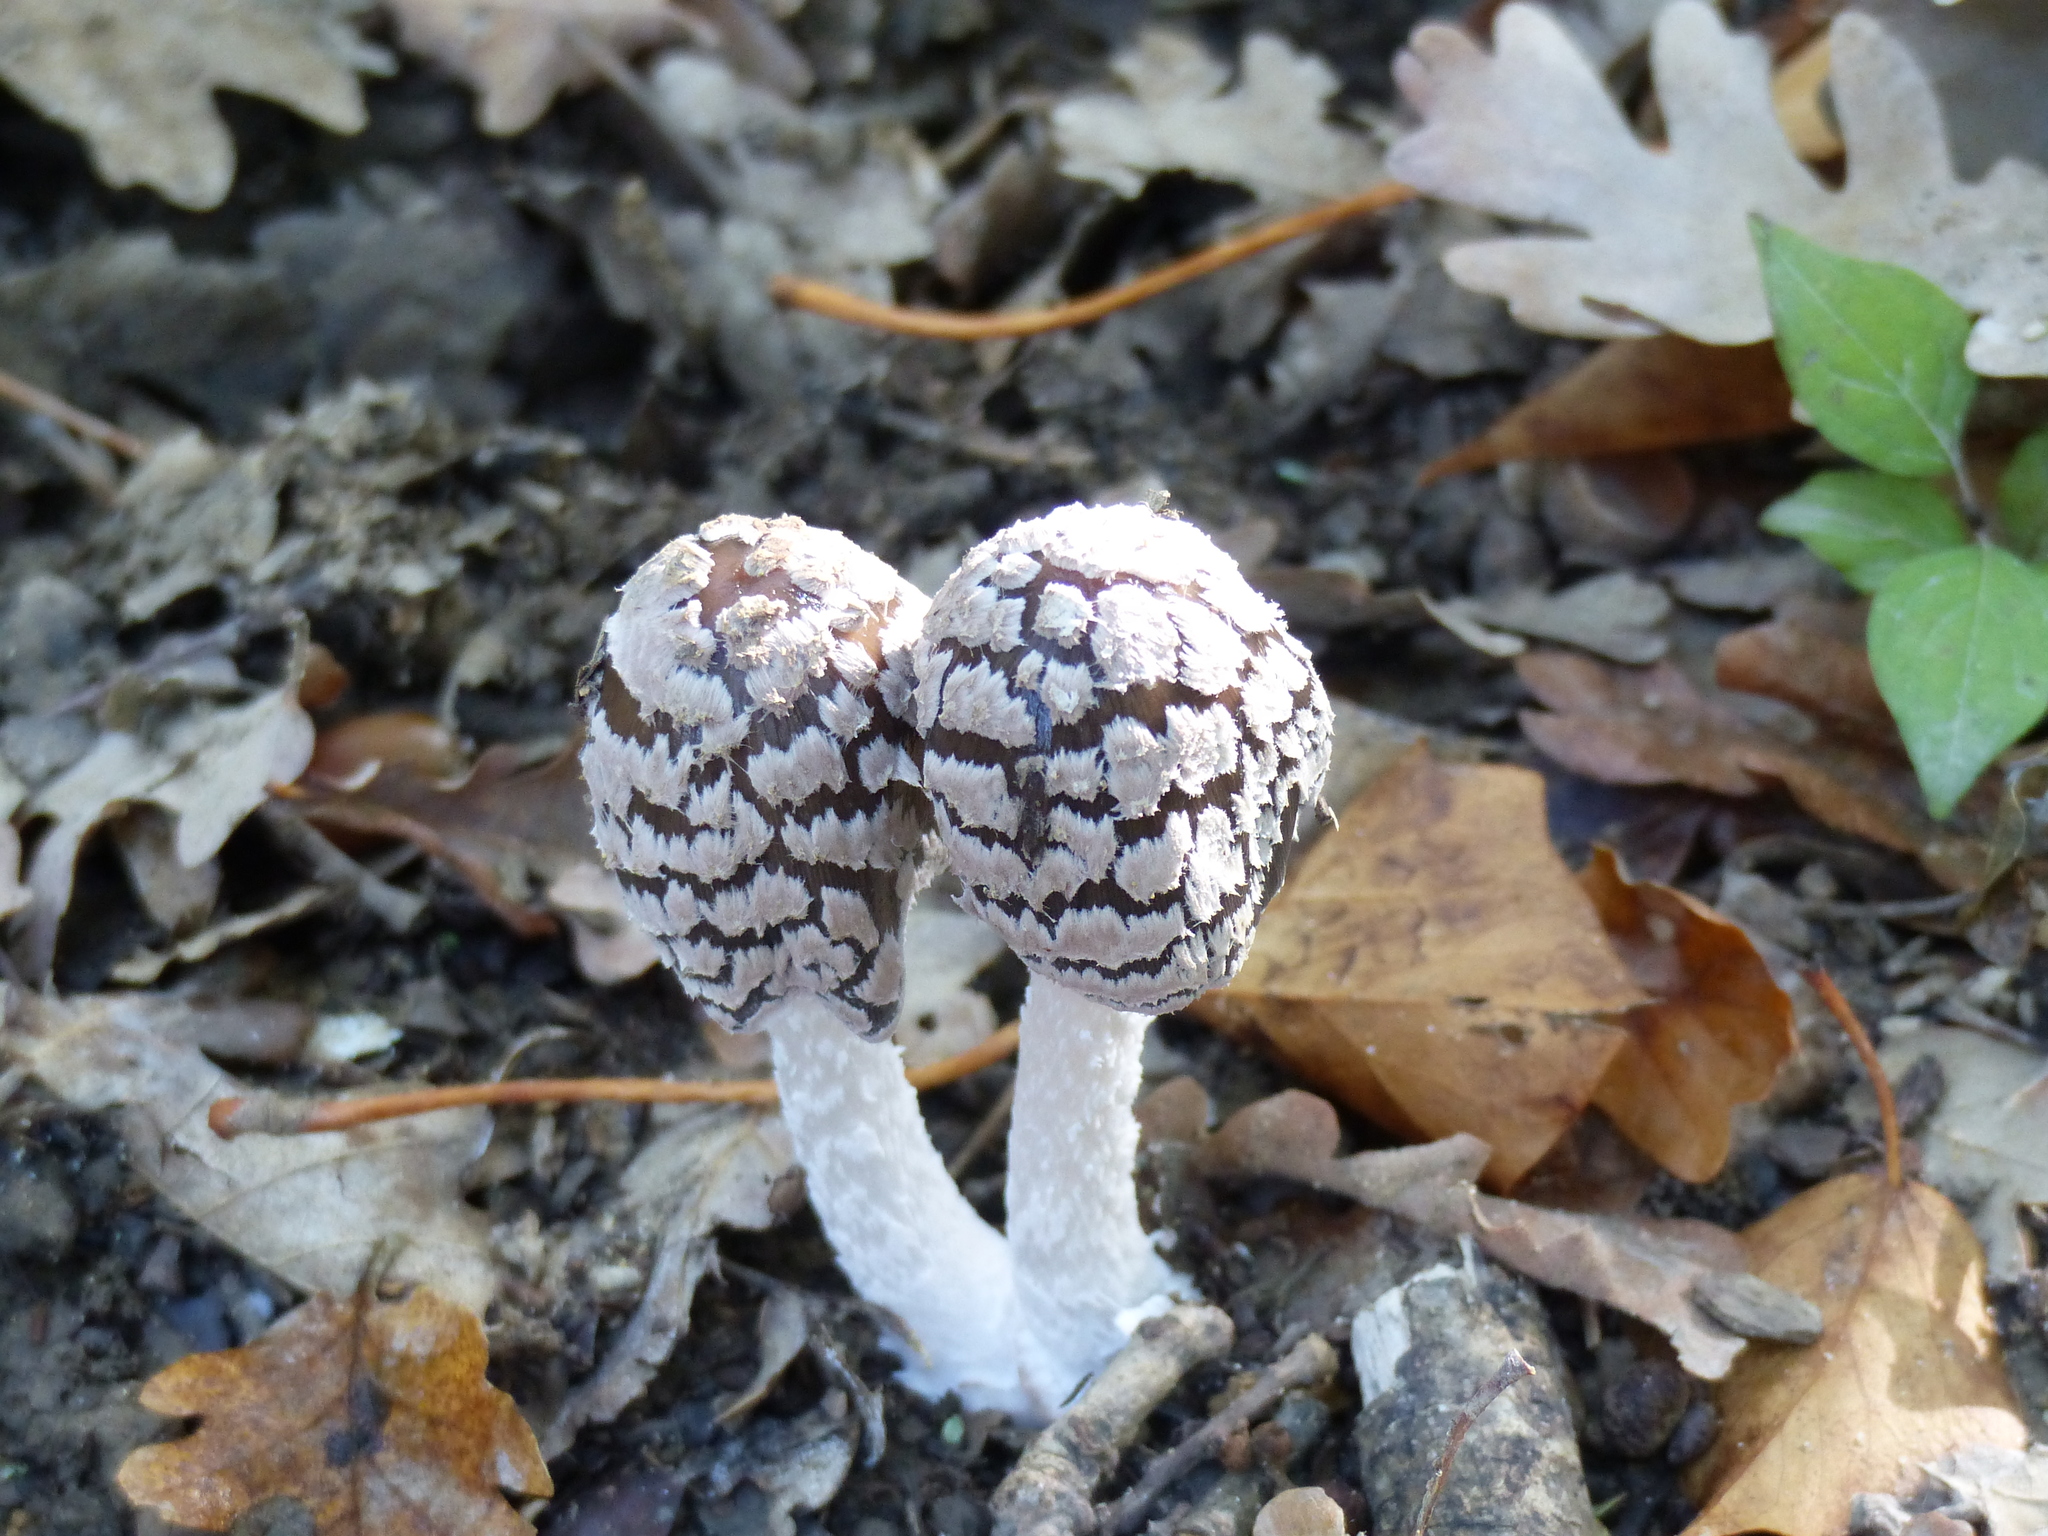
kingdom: Fungi
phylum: Basidiomycota
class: Agaricomycetes
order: Agaricales
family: Psathyrellaceae
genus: Coprinopsis
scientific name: Coprinopsis picacea
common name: Magpie inkcap
